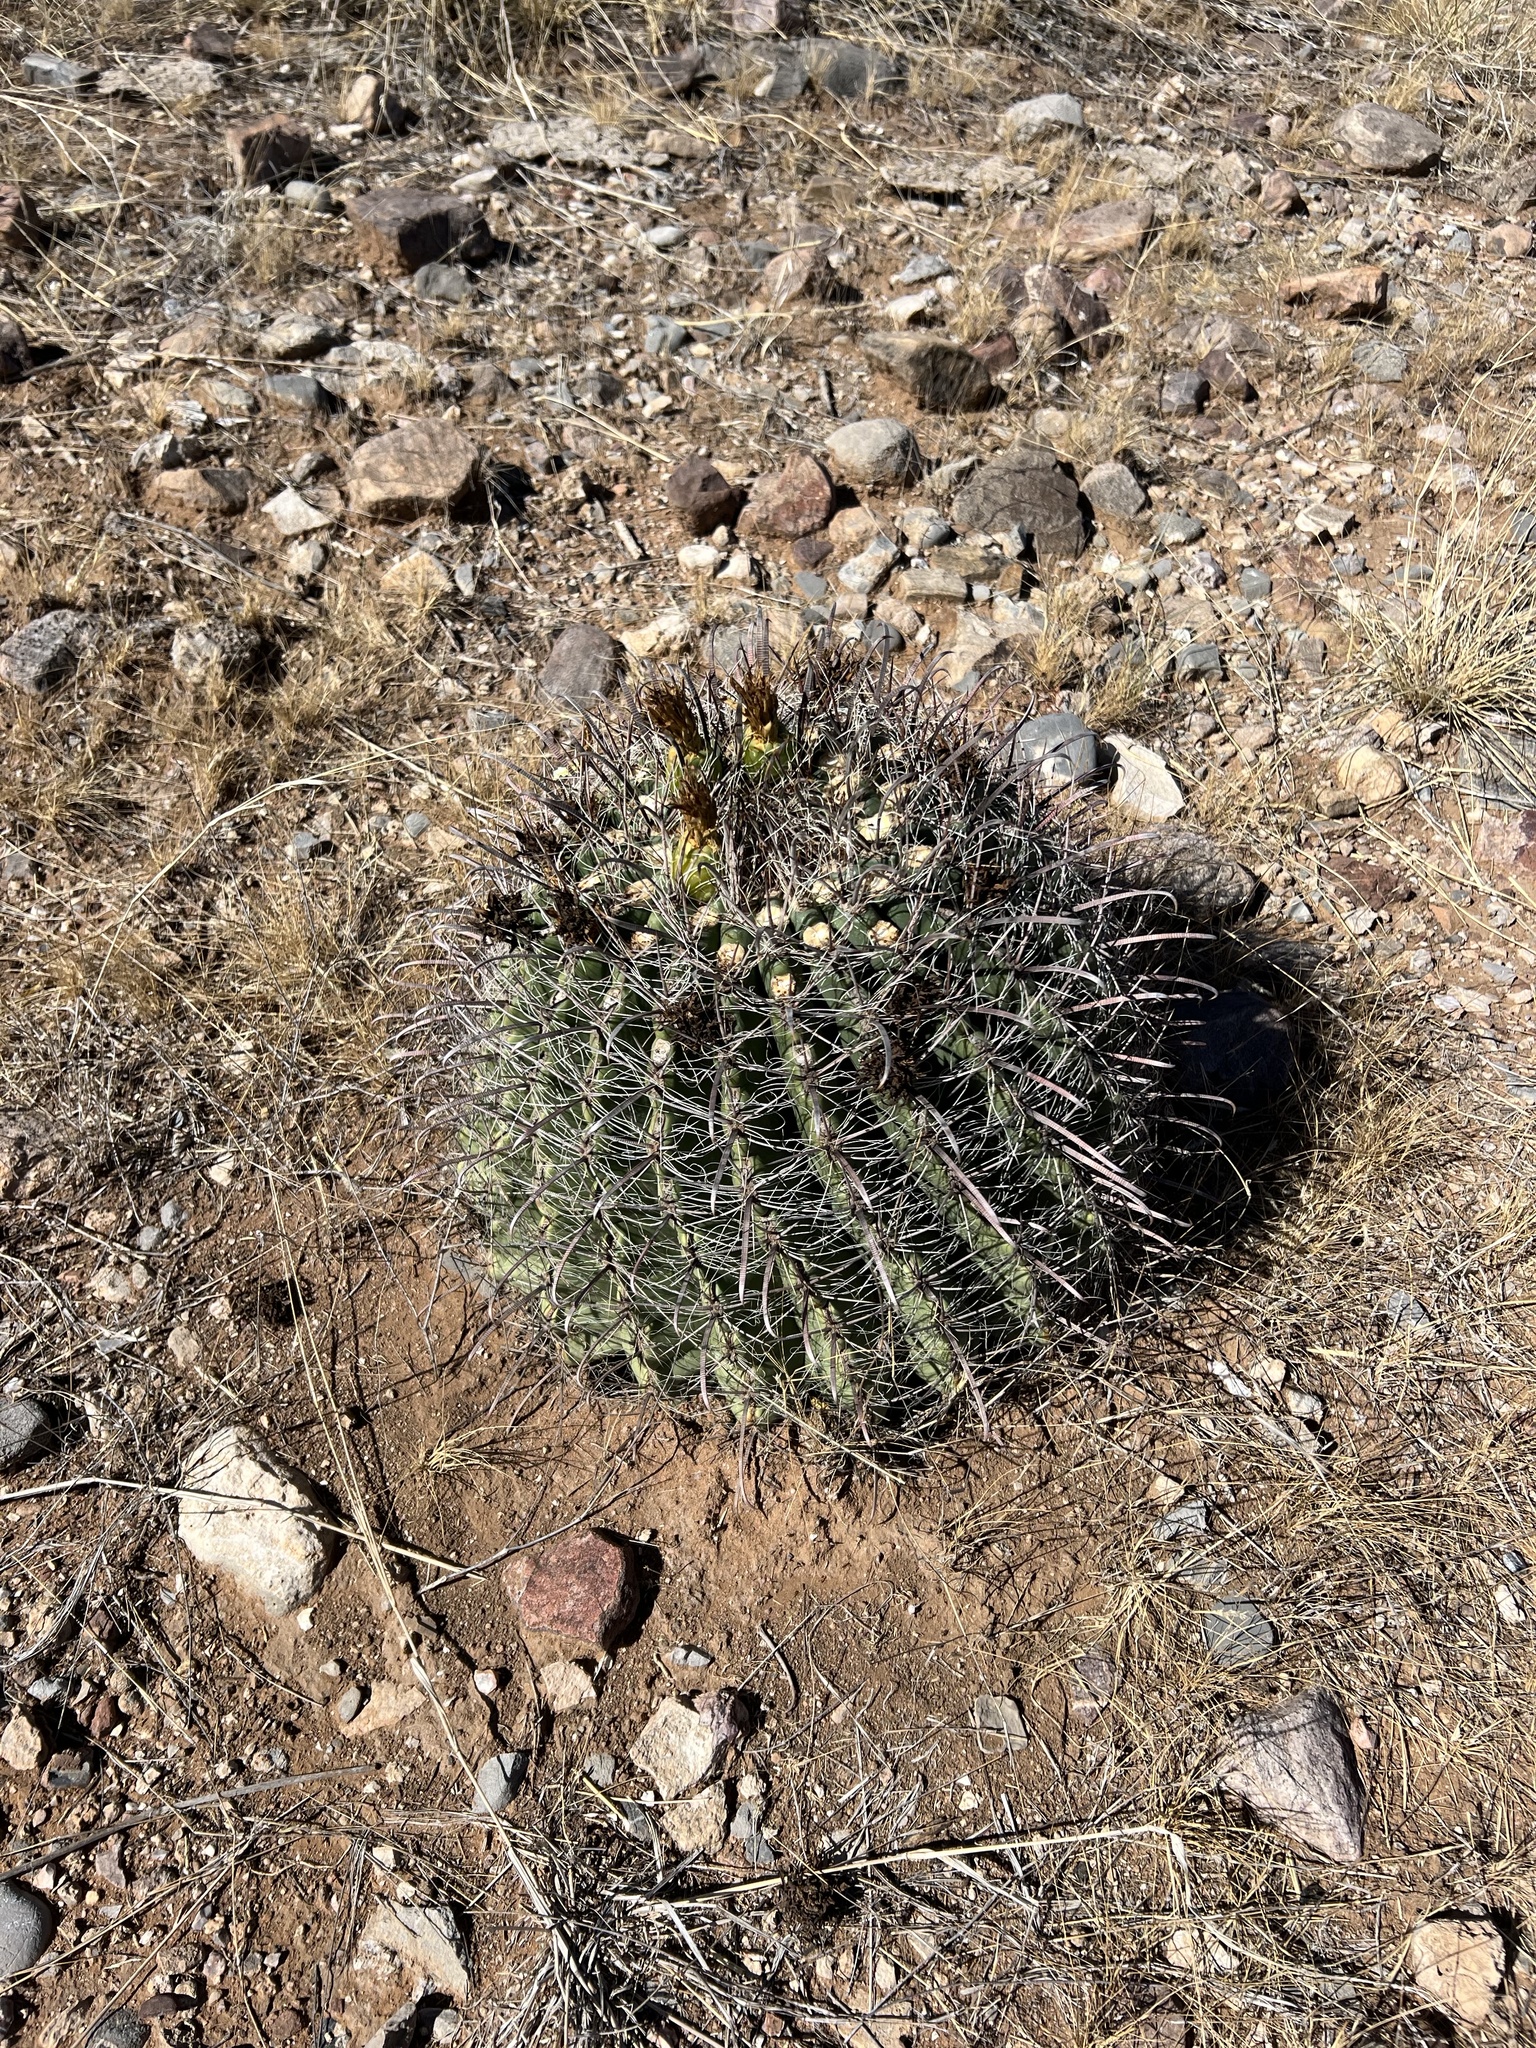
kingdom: Plantae
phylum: Tracheophyta
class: Magnoliopsida
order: Caryophyllales
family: Cactaceae
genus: Ferocactus
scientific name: Ferocactus wislizeni
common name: Candy barrel cactus
